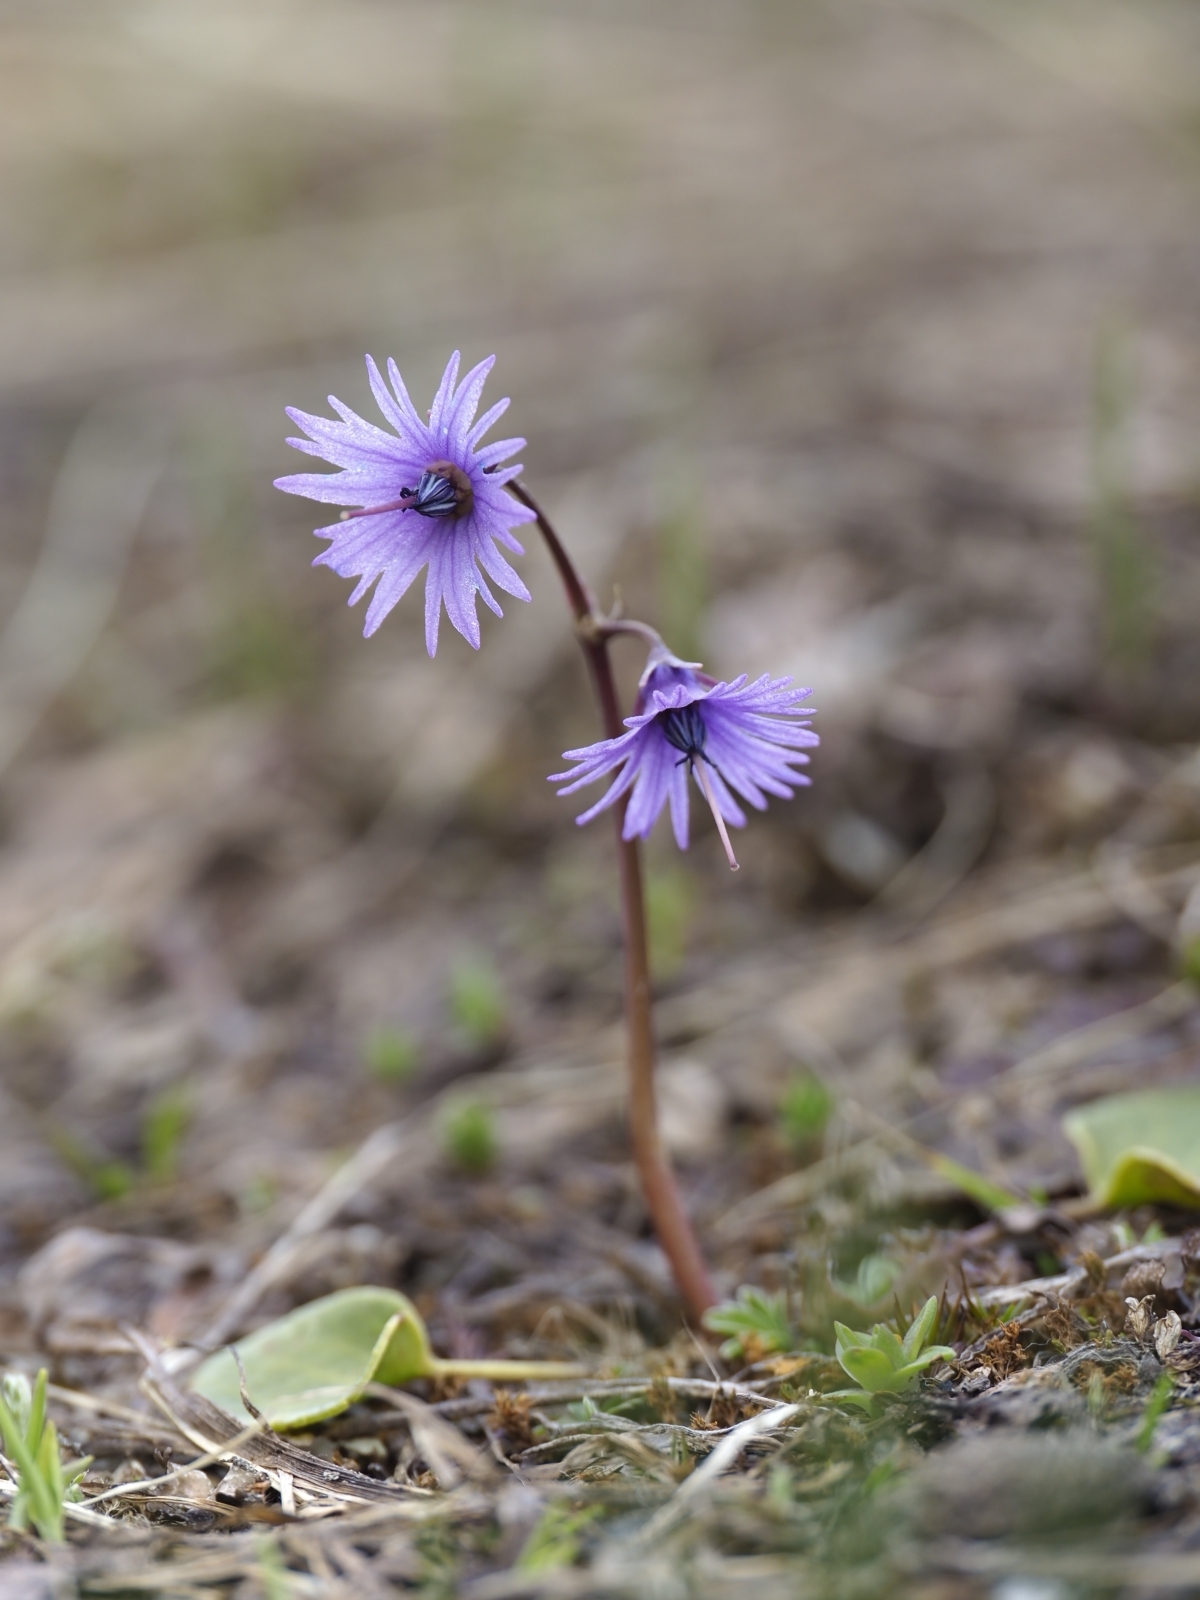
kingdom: Plantae
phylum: Tracheophyta
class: Magnoliopsida
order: Ericales
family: Primulaceae
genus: Soldanella
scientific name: Soldanella alpina
